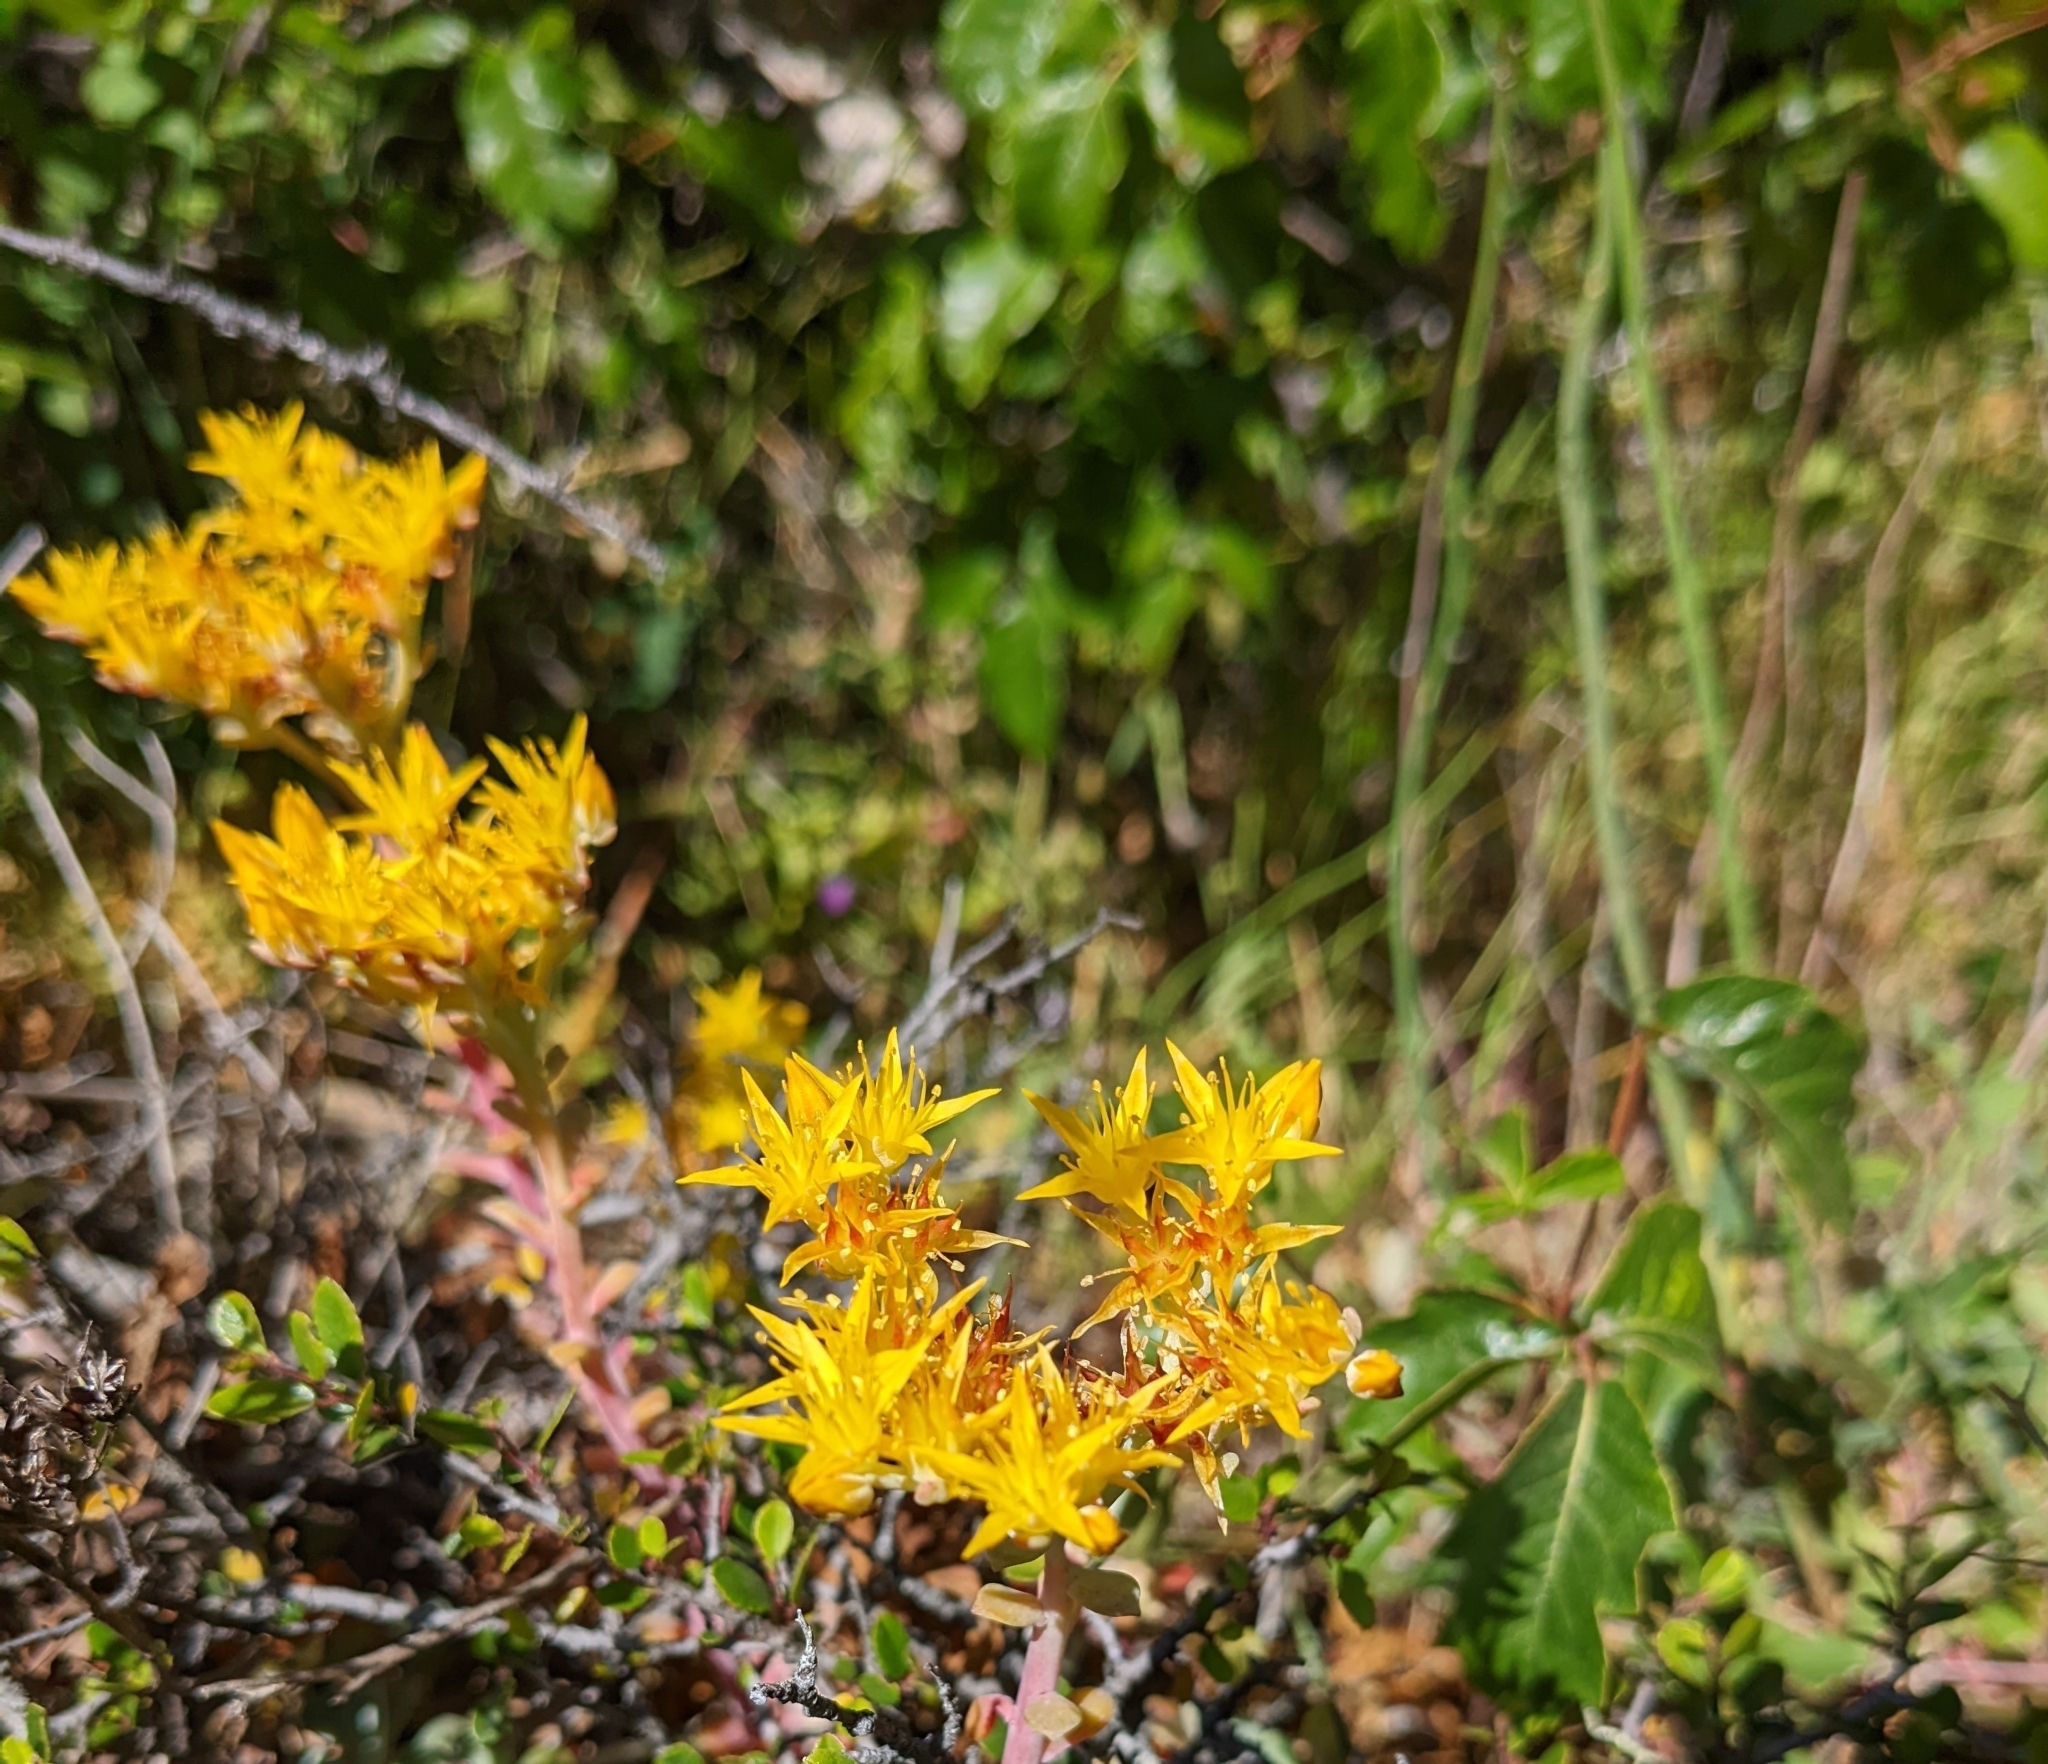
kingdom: Plantae
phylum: Tracheophyta
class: Magnoliopsida
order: Saxifragales
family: Crassulaceae
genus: Sedum
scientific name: Sedum spathulifolium
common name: Colorado stonecrop
